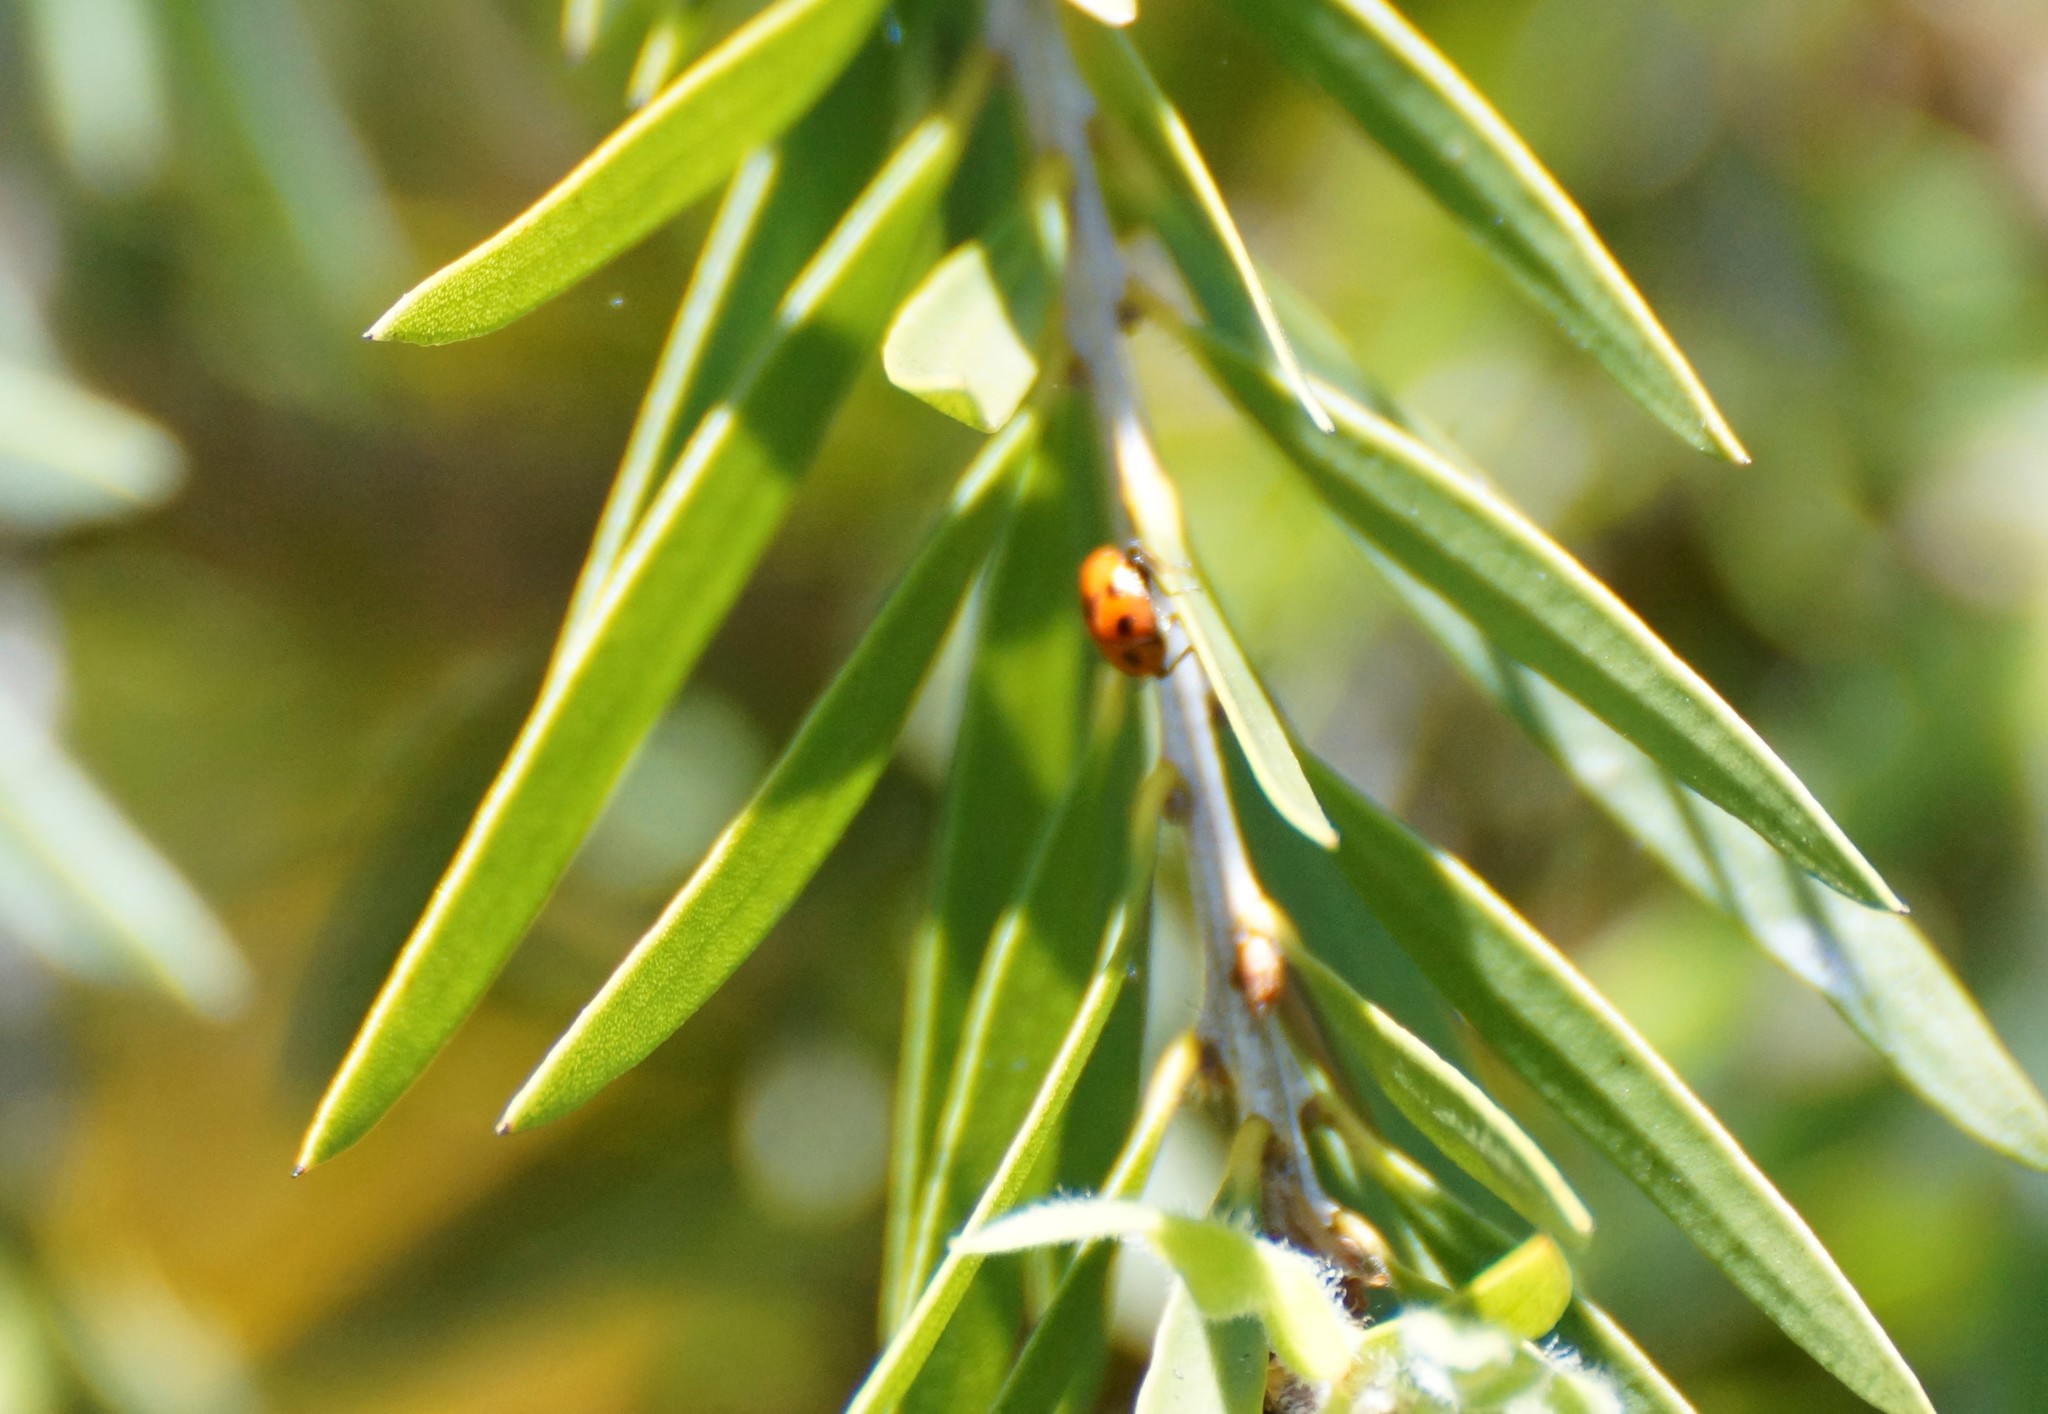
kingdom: Animalia
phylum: Arthropoda
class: Insecta
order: Coleoptera
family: Coccinellidae
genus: Hippodamia
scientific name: Hippodamia variegata
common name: Ladybird beetle
